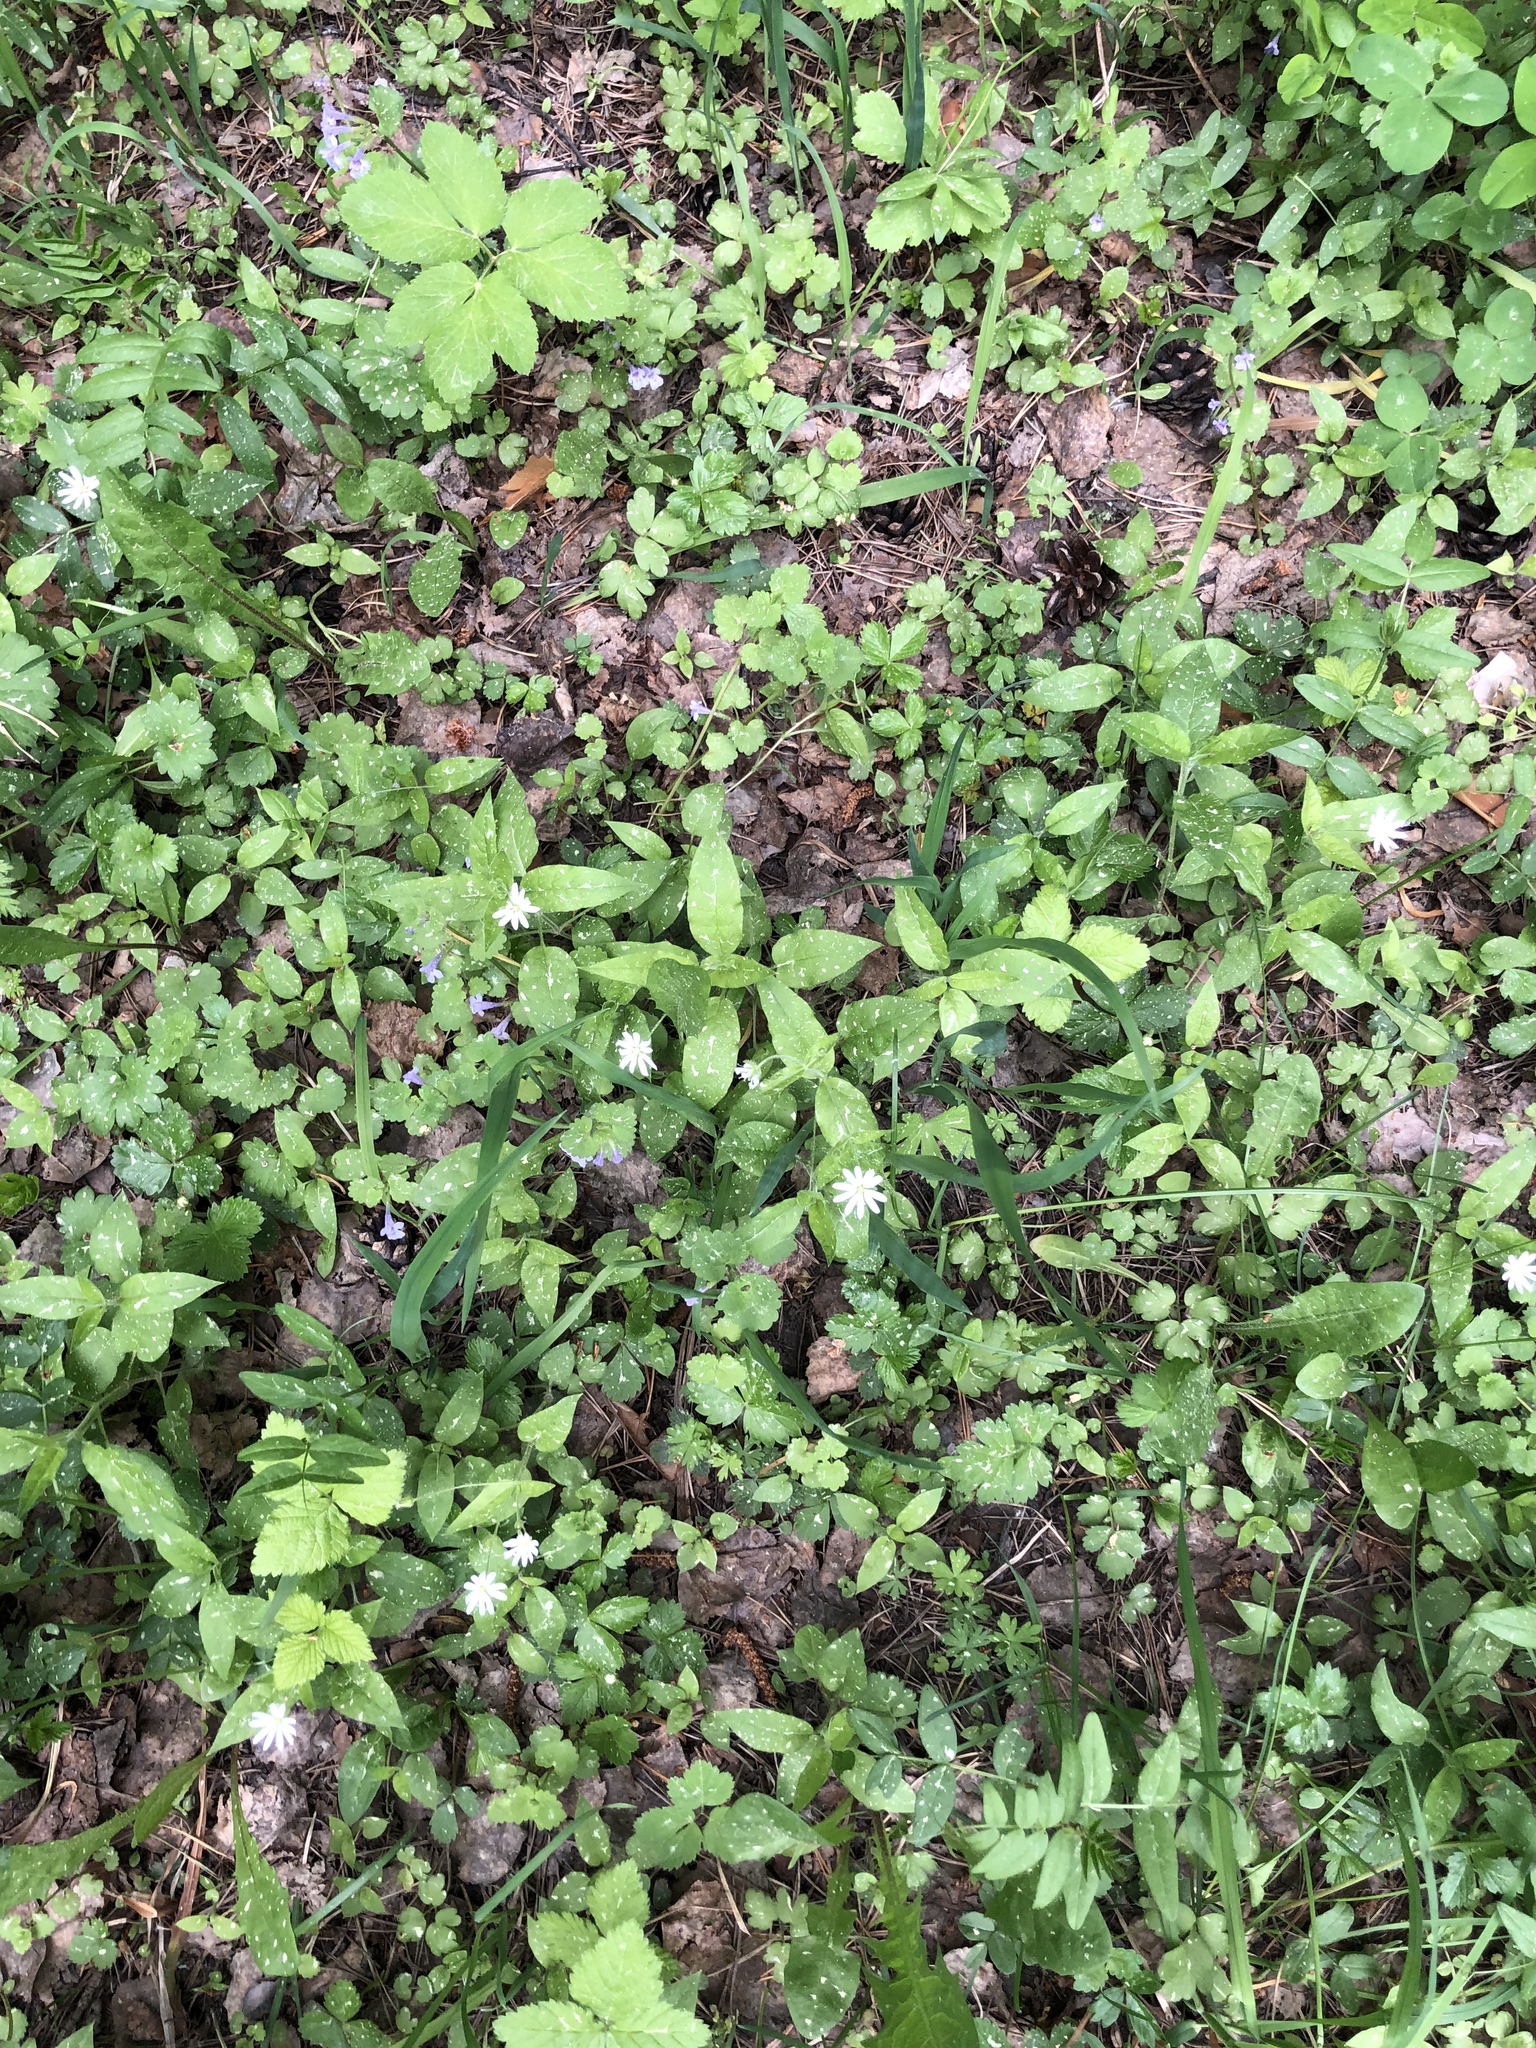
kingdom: Plantae
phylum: Tracheophyta
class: Magnoliopsida
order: Caryophyllales
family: Caryophyllaceae
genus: Stellaria
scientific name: Stellaria bungeana
